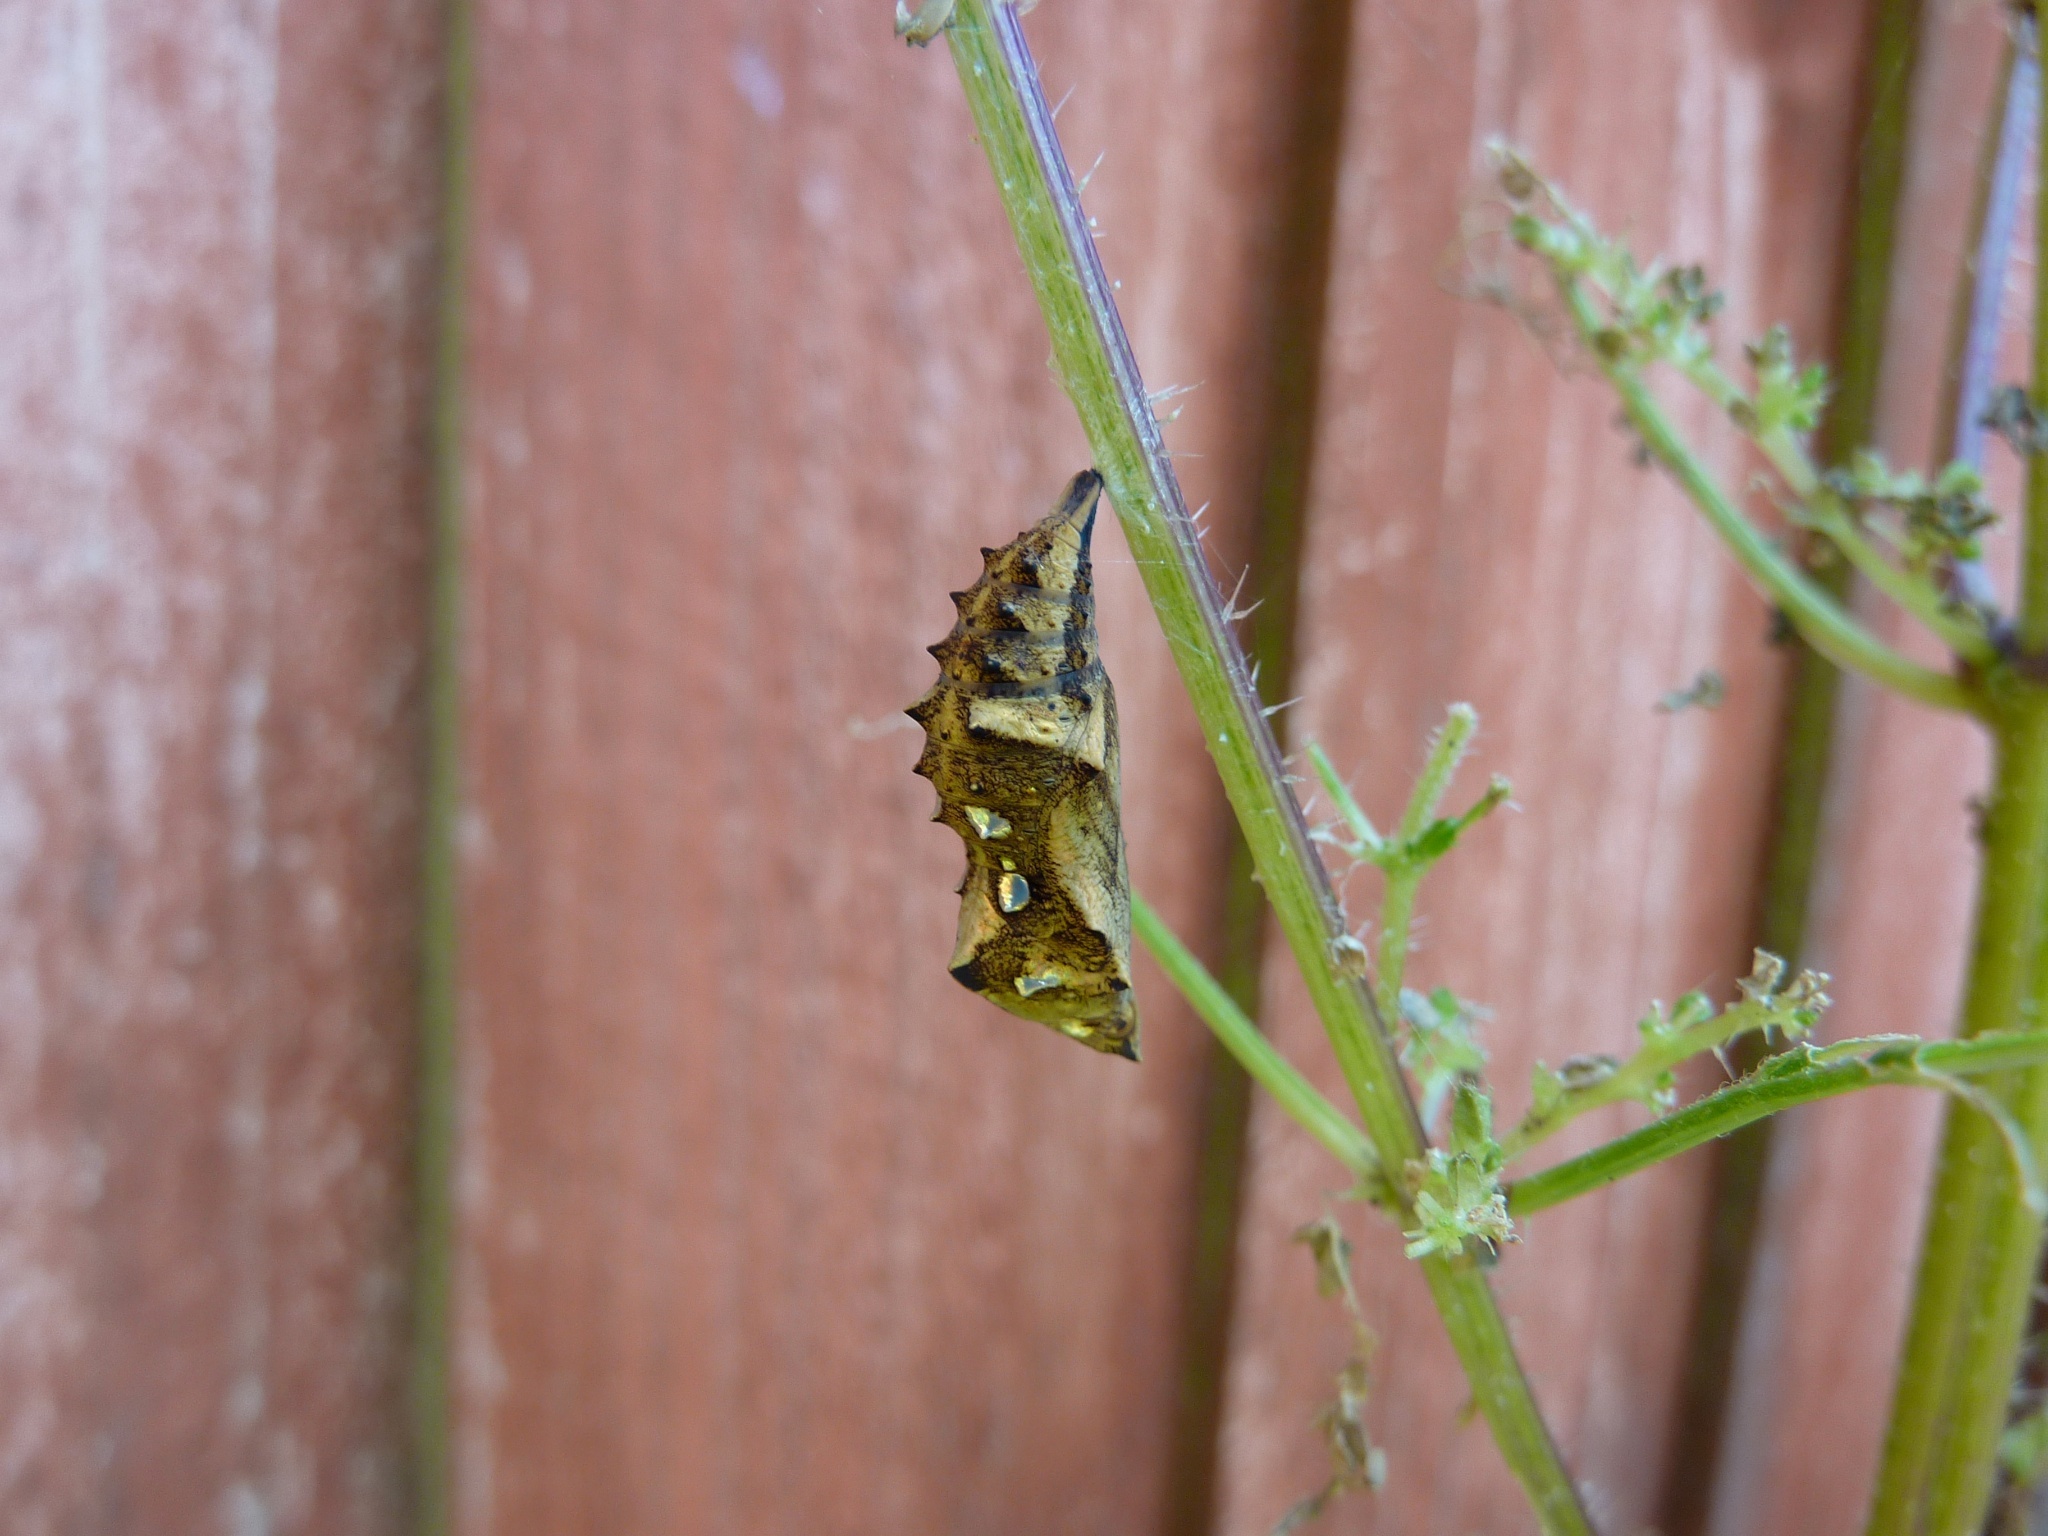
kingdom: Animalia
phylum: Arthropoda
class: Insecta
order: Lepidoptera
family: Nymphalidae
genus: Vanessa
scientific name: Vanessa itea
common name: Yellow admiral
